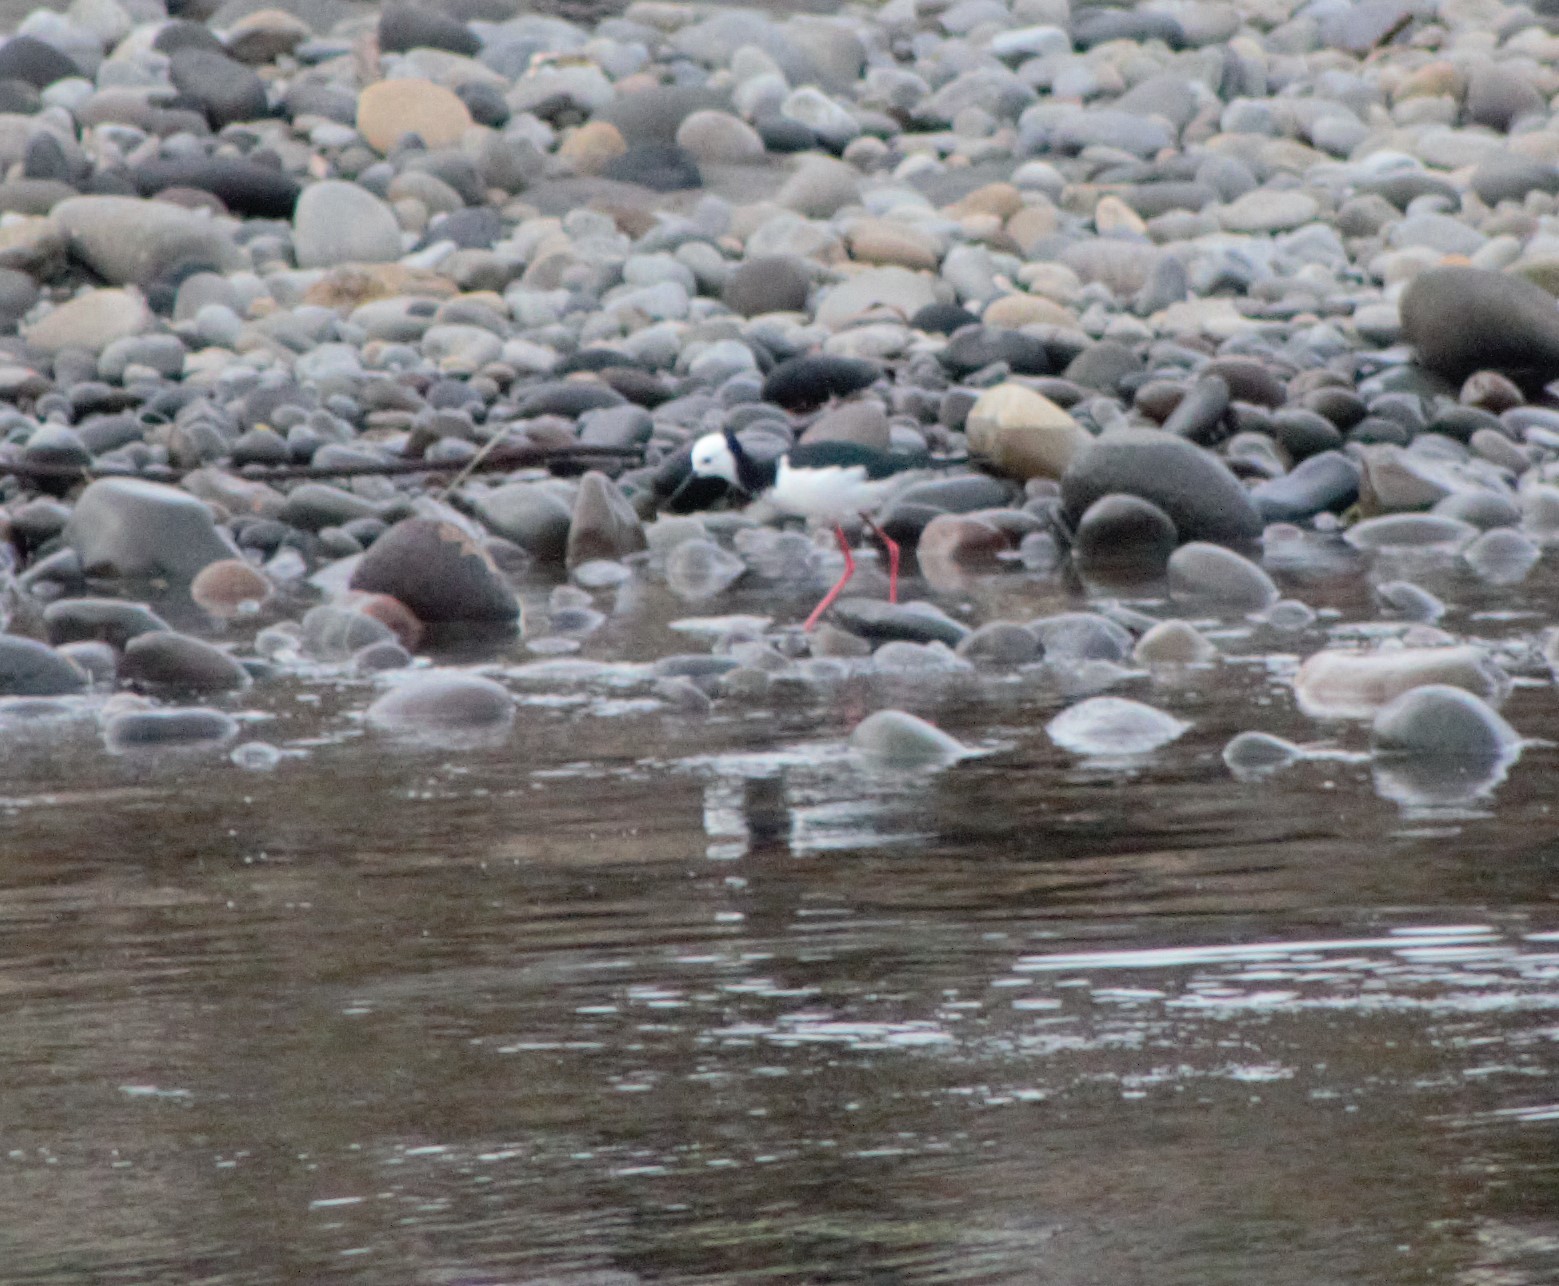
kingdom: Animalia
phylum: Chordata
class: Aves
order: Charadriiformes
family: Recurvirostridae
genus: Himantopus
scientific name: Himantopus leucocephalus
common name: White-headed stilt
